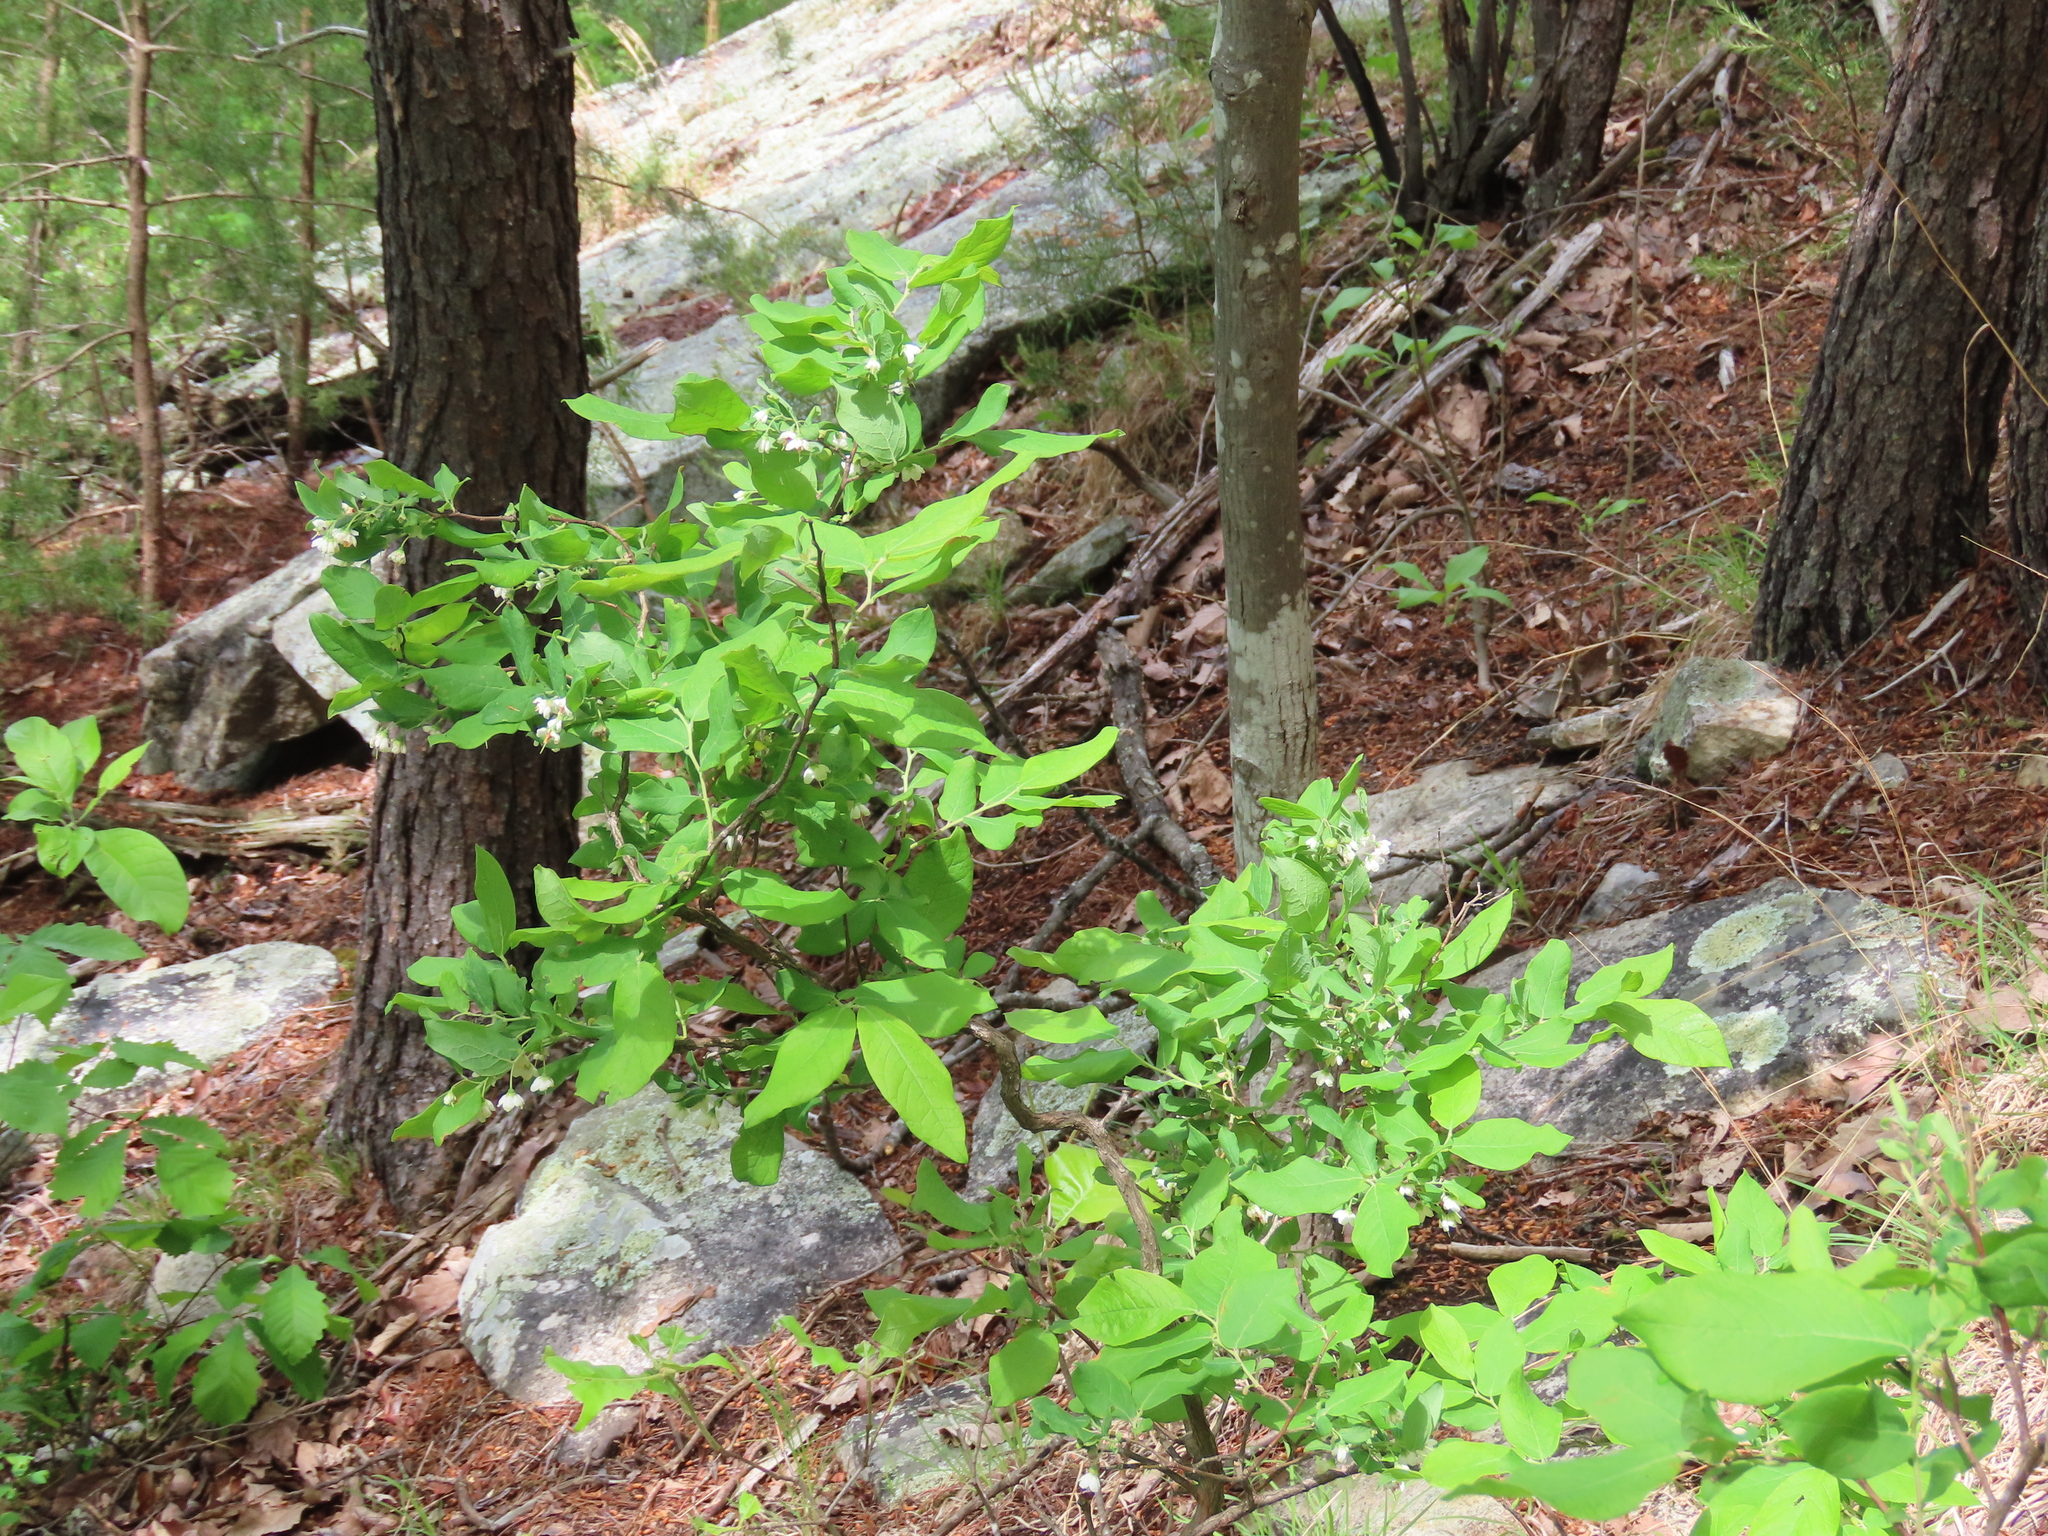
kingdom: Plantae
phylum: Tracheophyta
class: Magnoliopsida
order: Ericales
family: Ericaceae
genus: Vaccinium
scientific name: Vaccinium stamineum
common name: Deerberry
